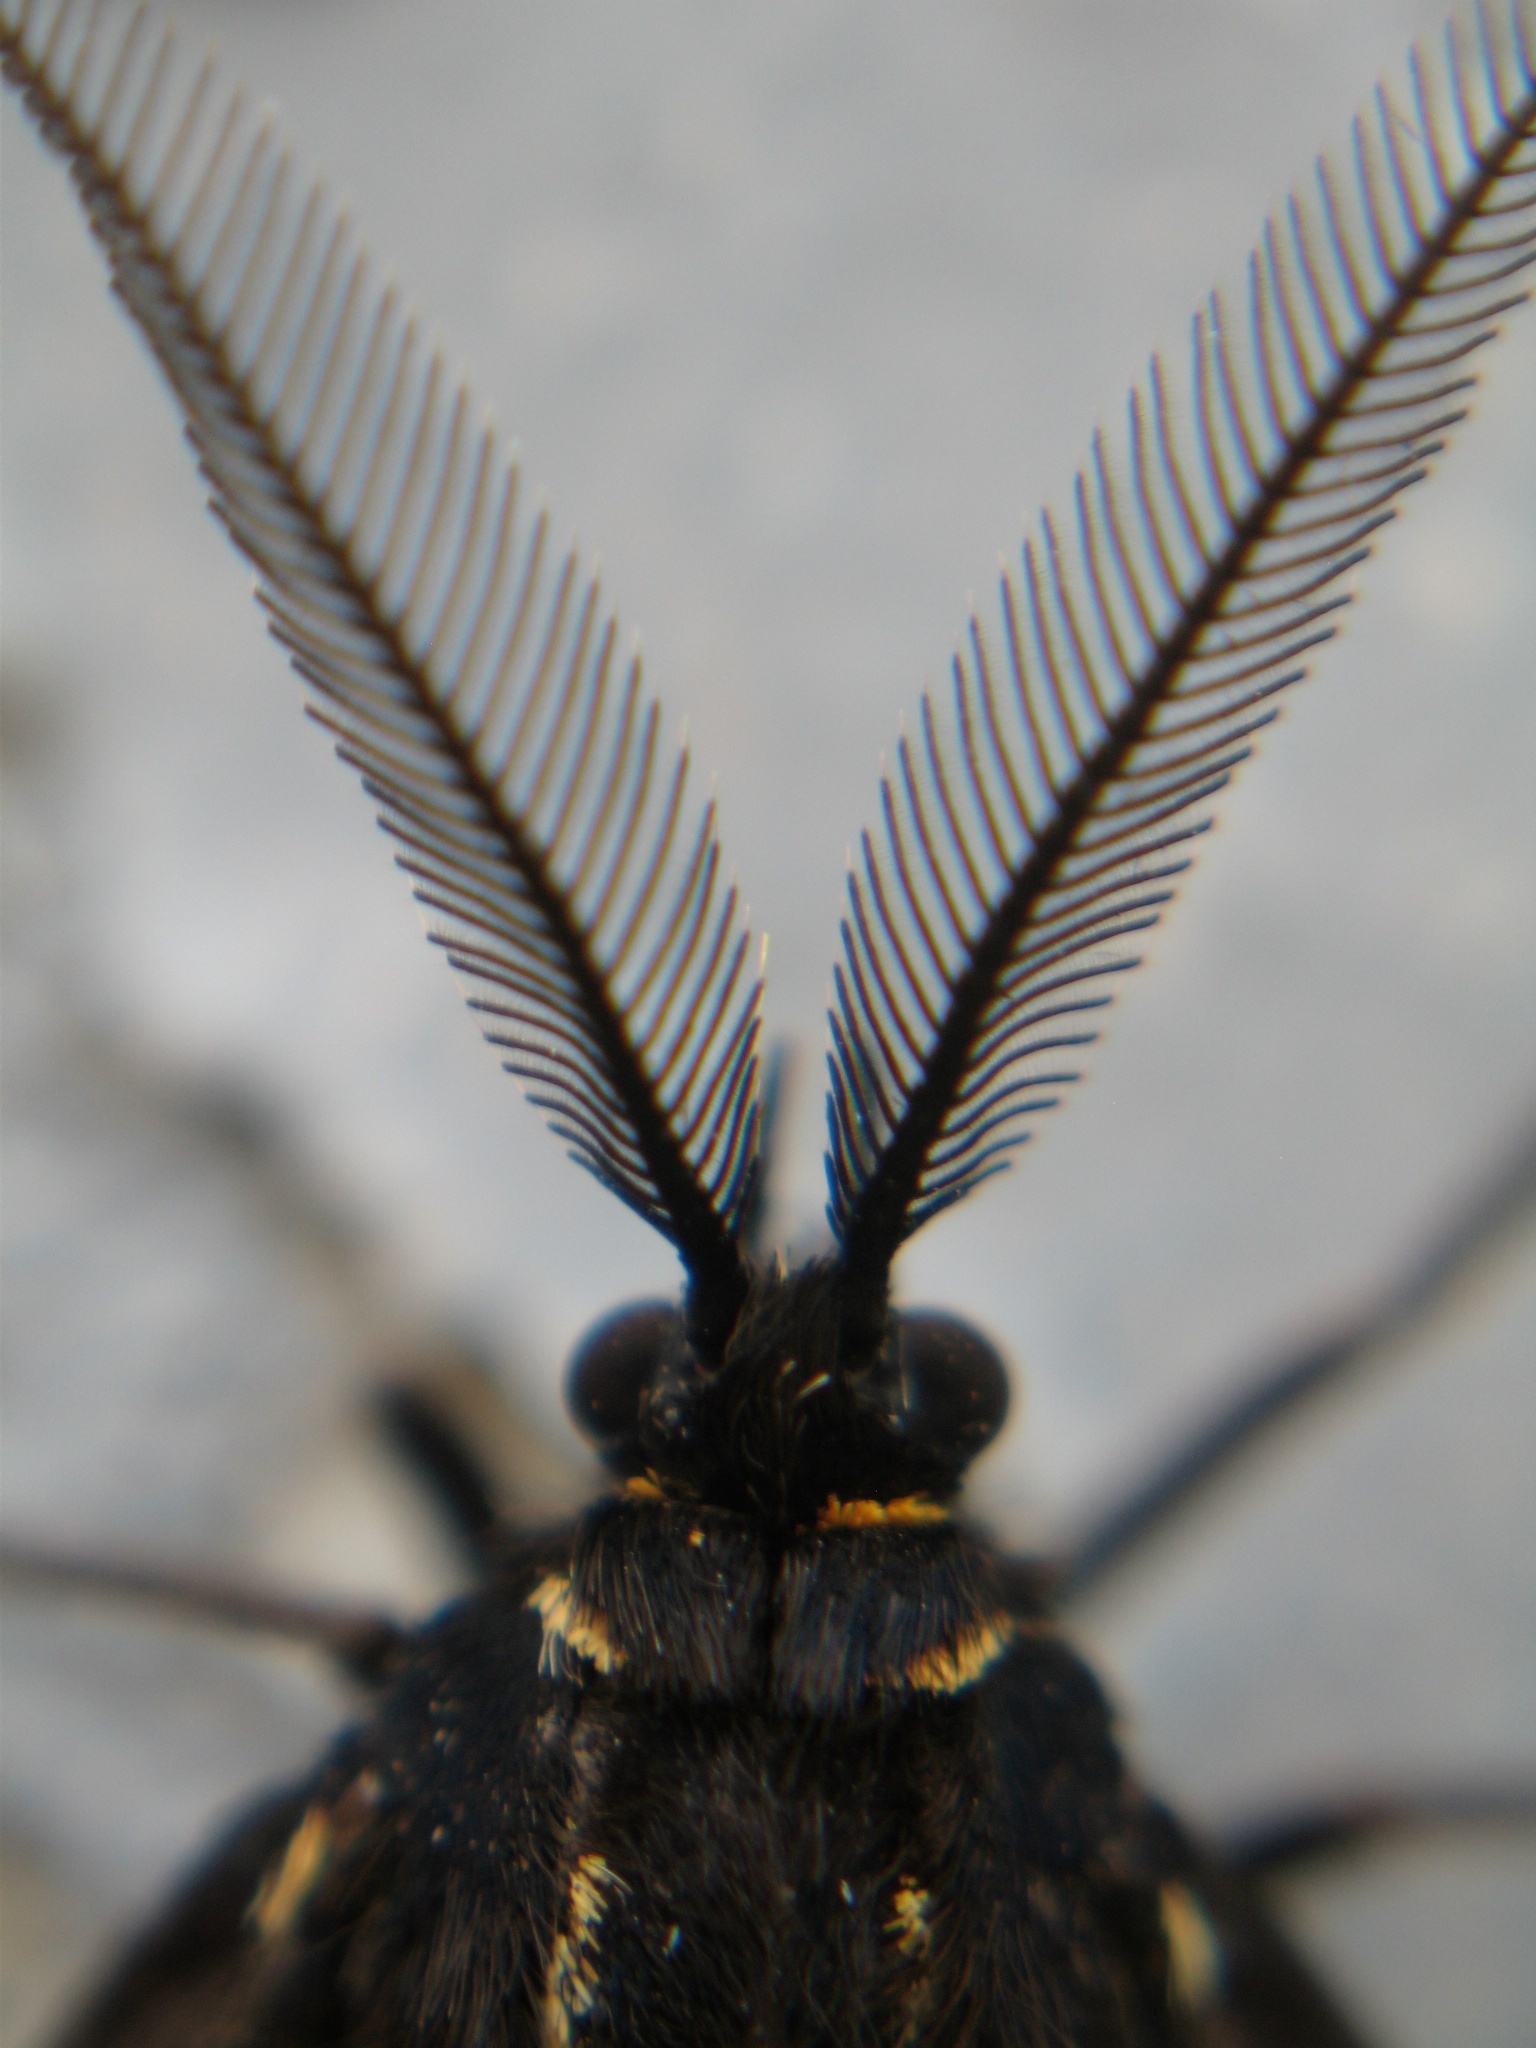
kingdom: Animalia
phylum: Arthropoda
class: Insecta
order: Lepidoptera
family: Erebidae
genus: Nyctemera
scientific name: Nyctemera annulatum
